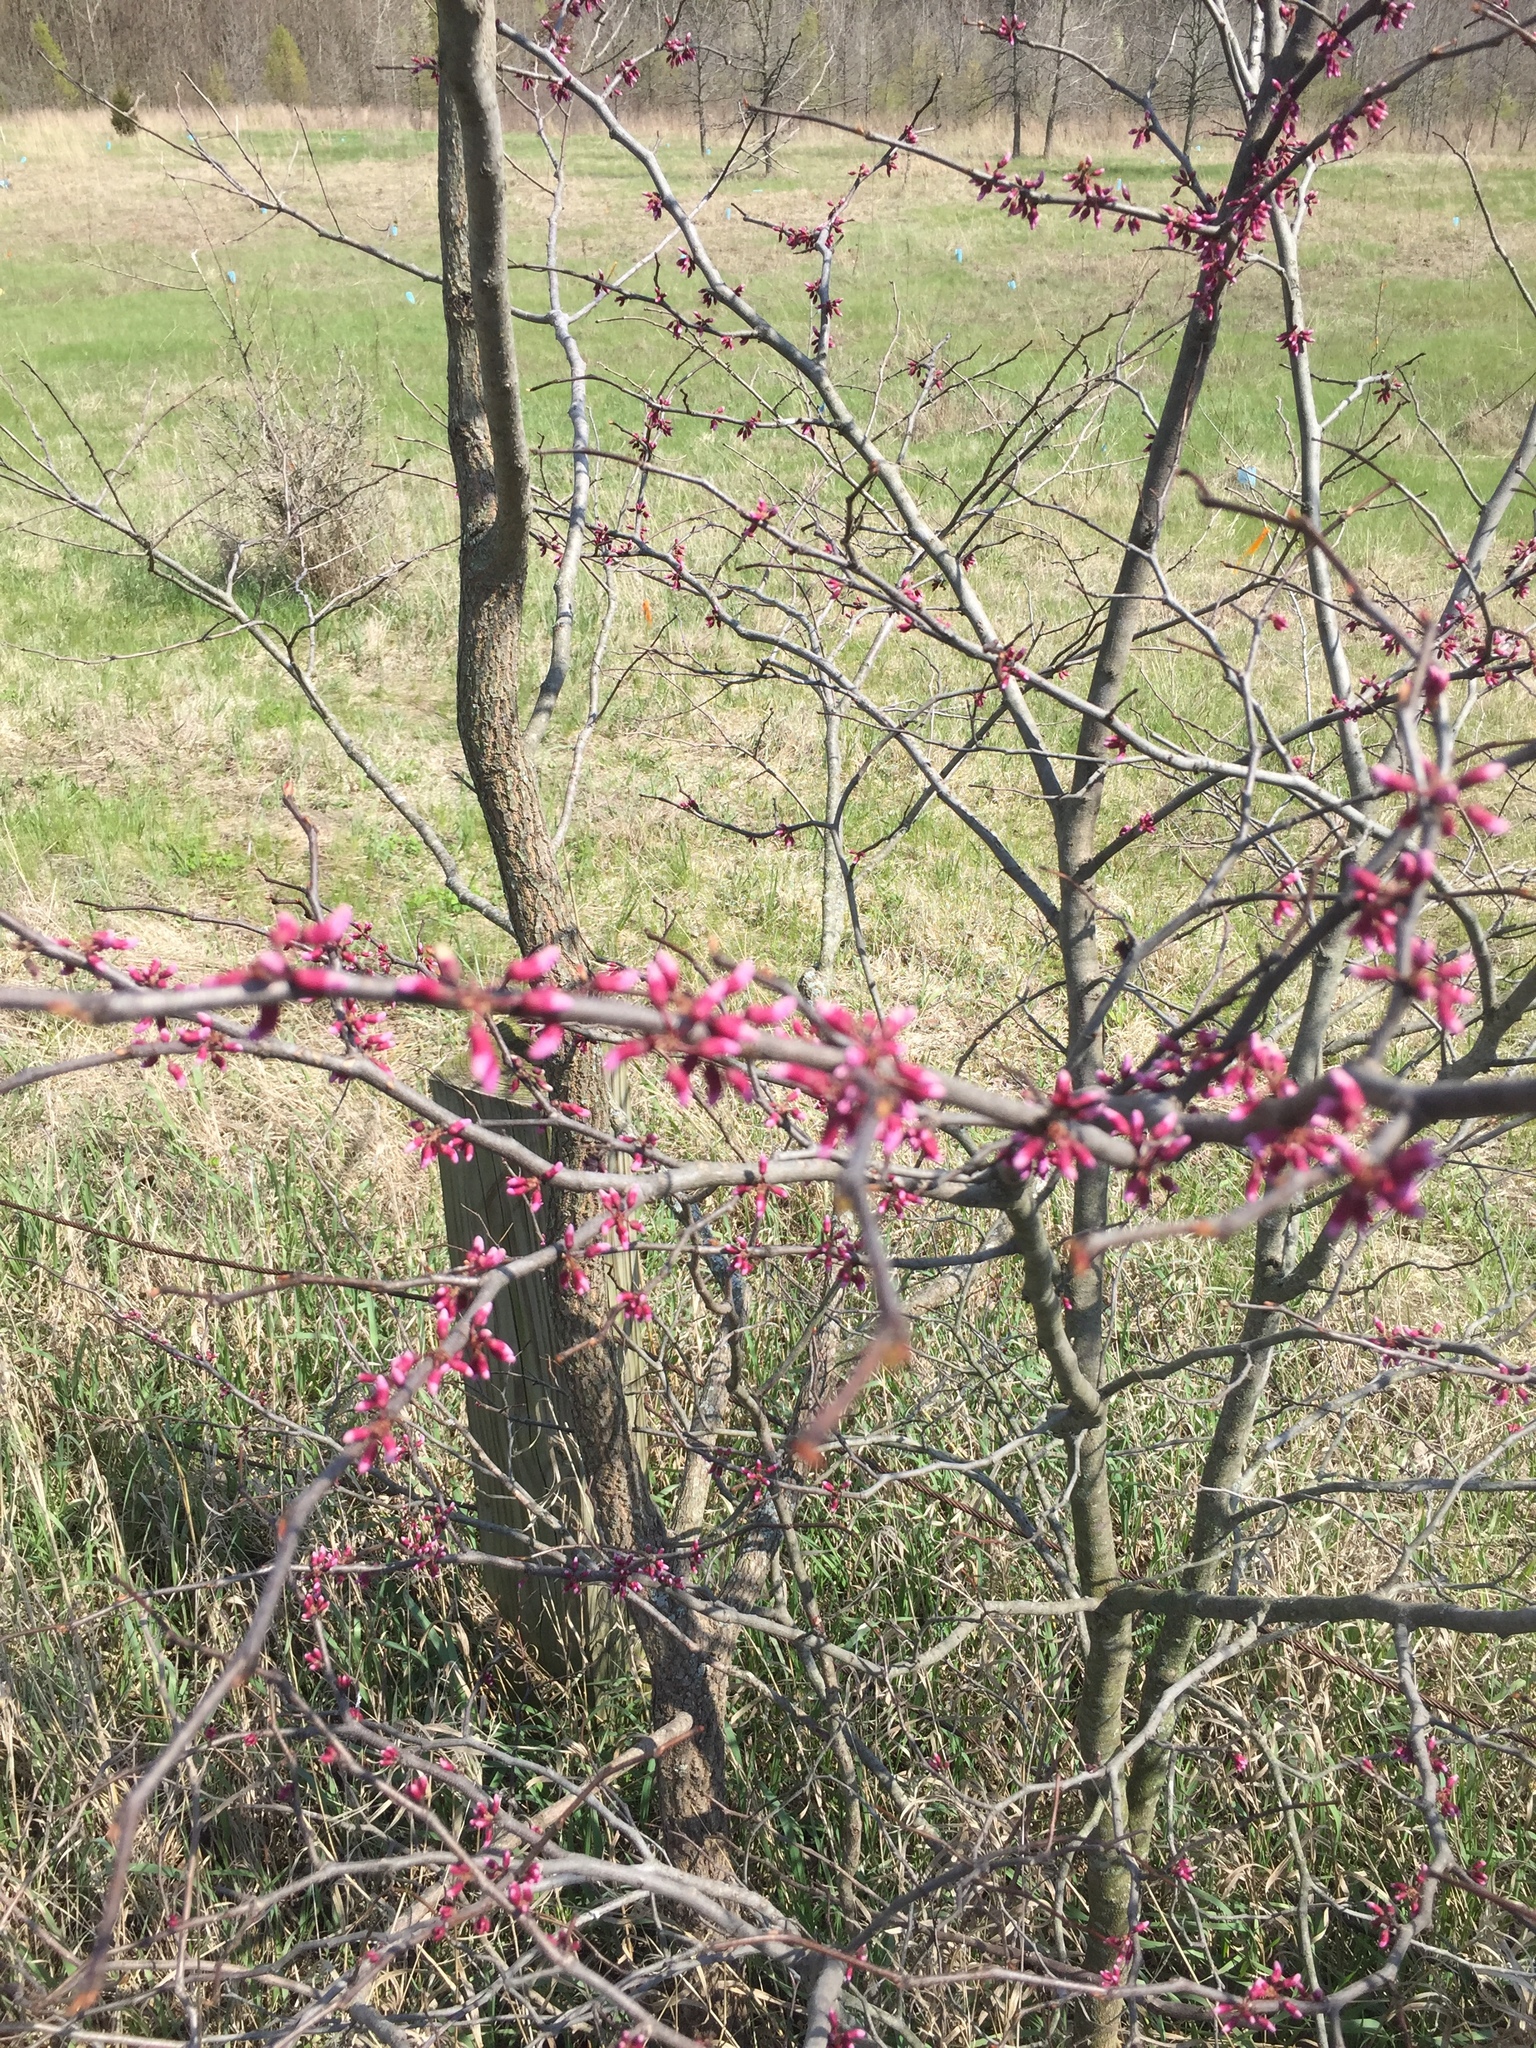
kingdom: Plantae
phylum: Tracheophyta
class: Magnoliopsida
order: Fabales
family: Fabaceae
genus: Cercis
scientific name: Cercis canadensis
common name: Eastern redbud
